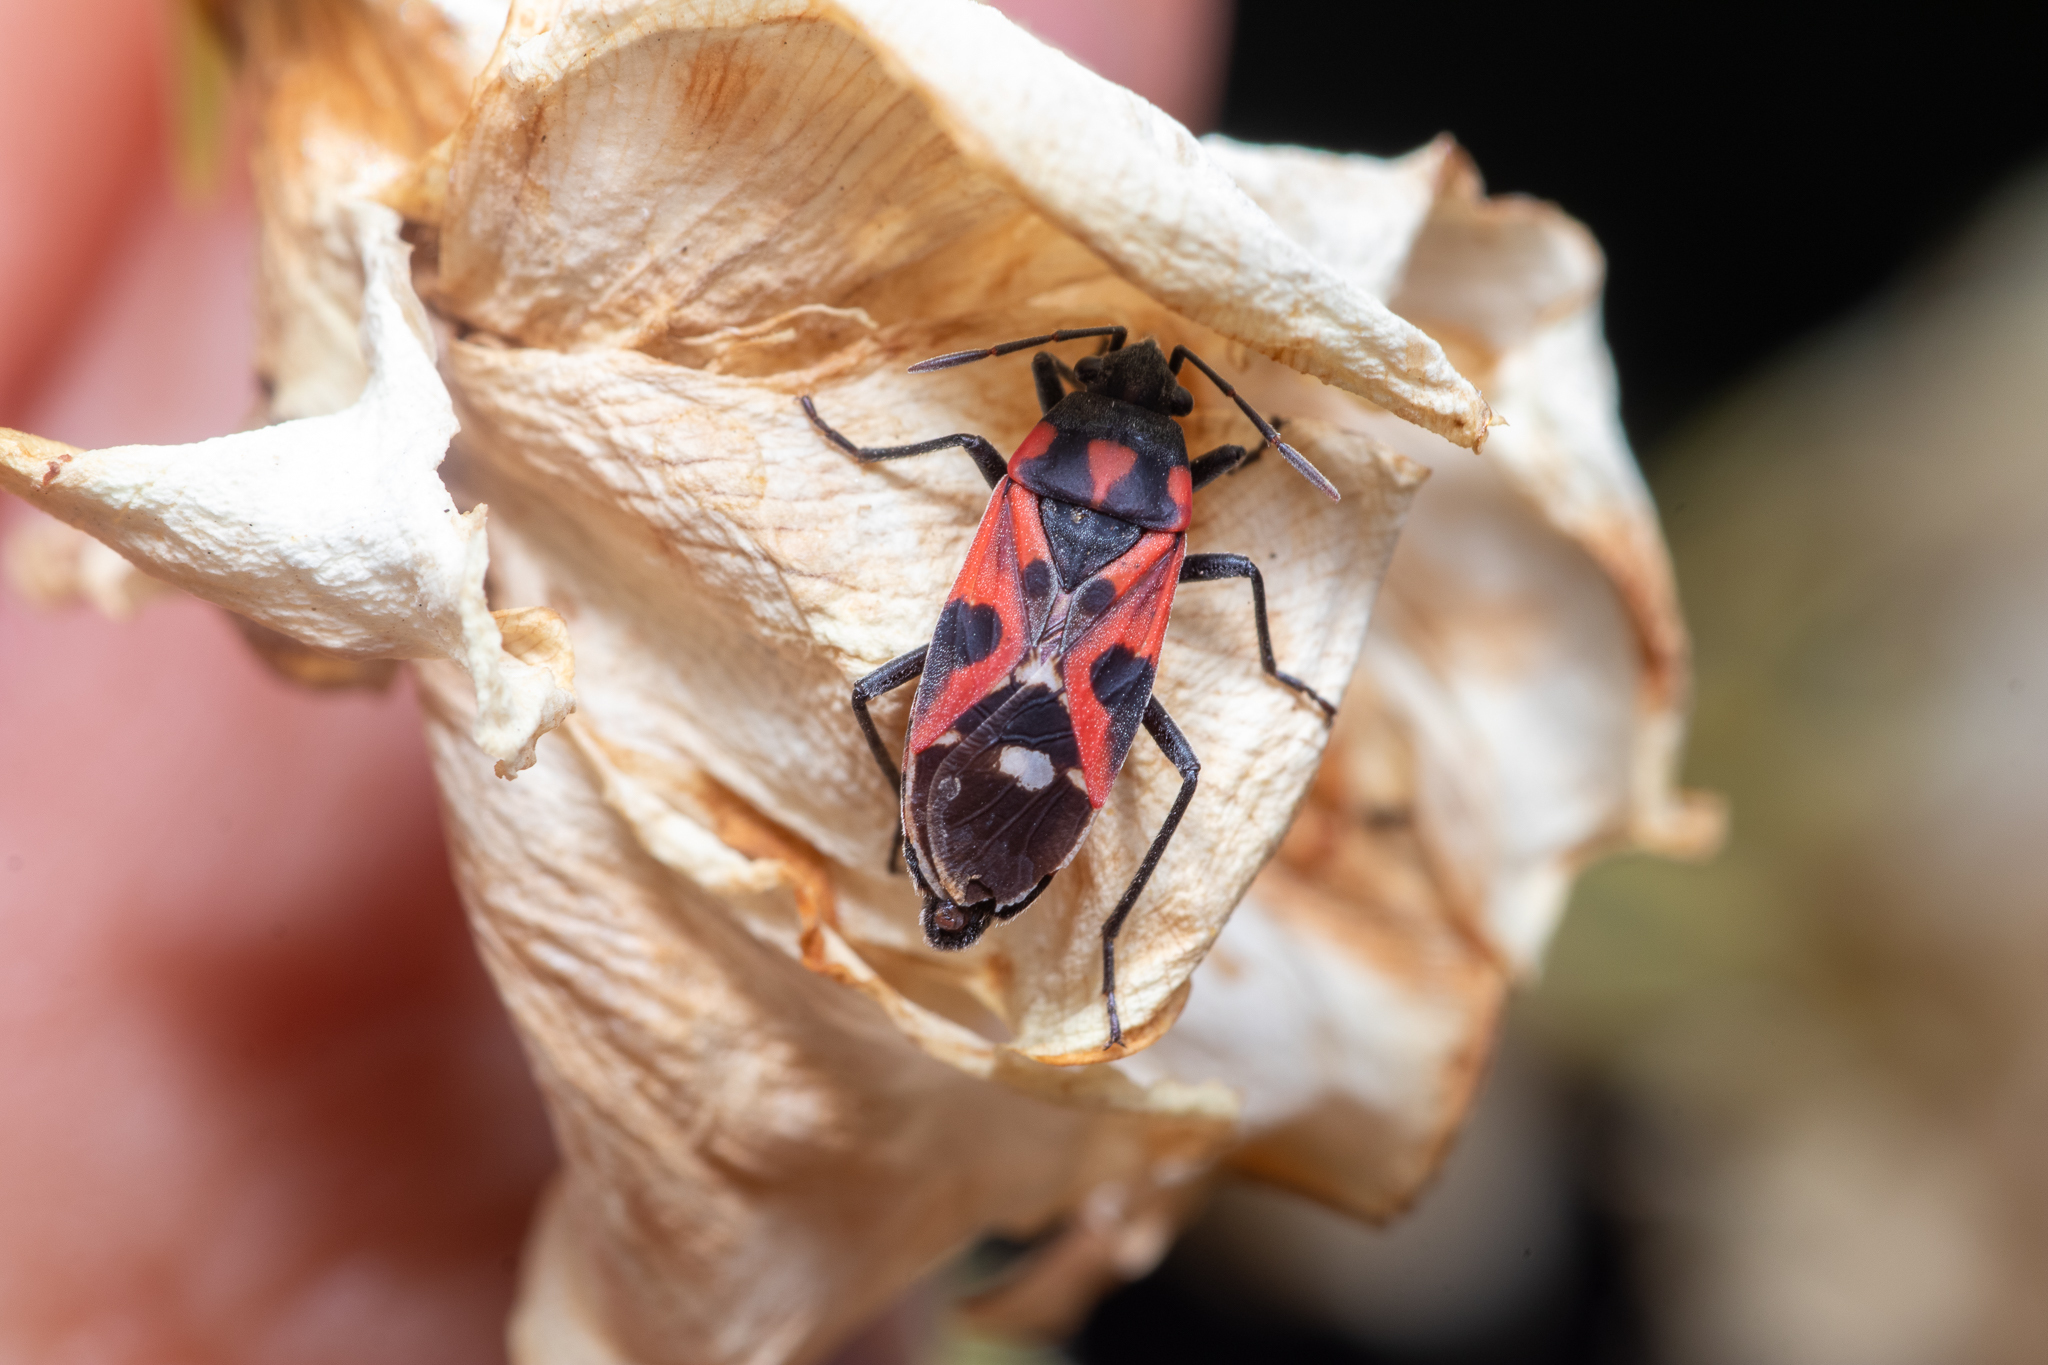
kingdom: Animalia
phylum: Arthropoda
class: Insecta
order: Hemiptera
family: Lygaeidae
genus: Lygaeus
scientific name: Lygaeus alboornatus
